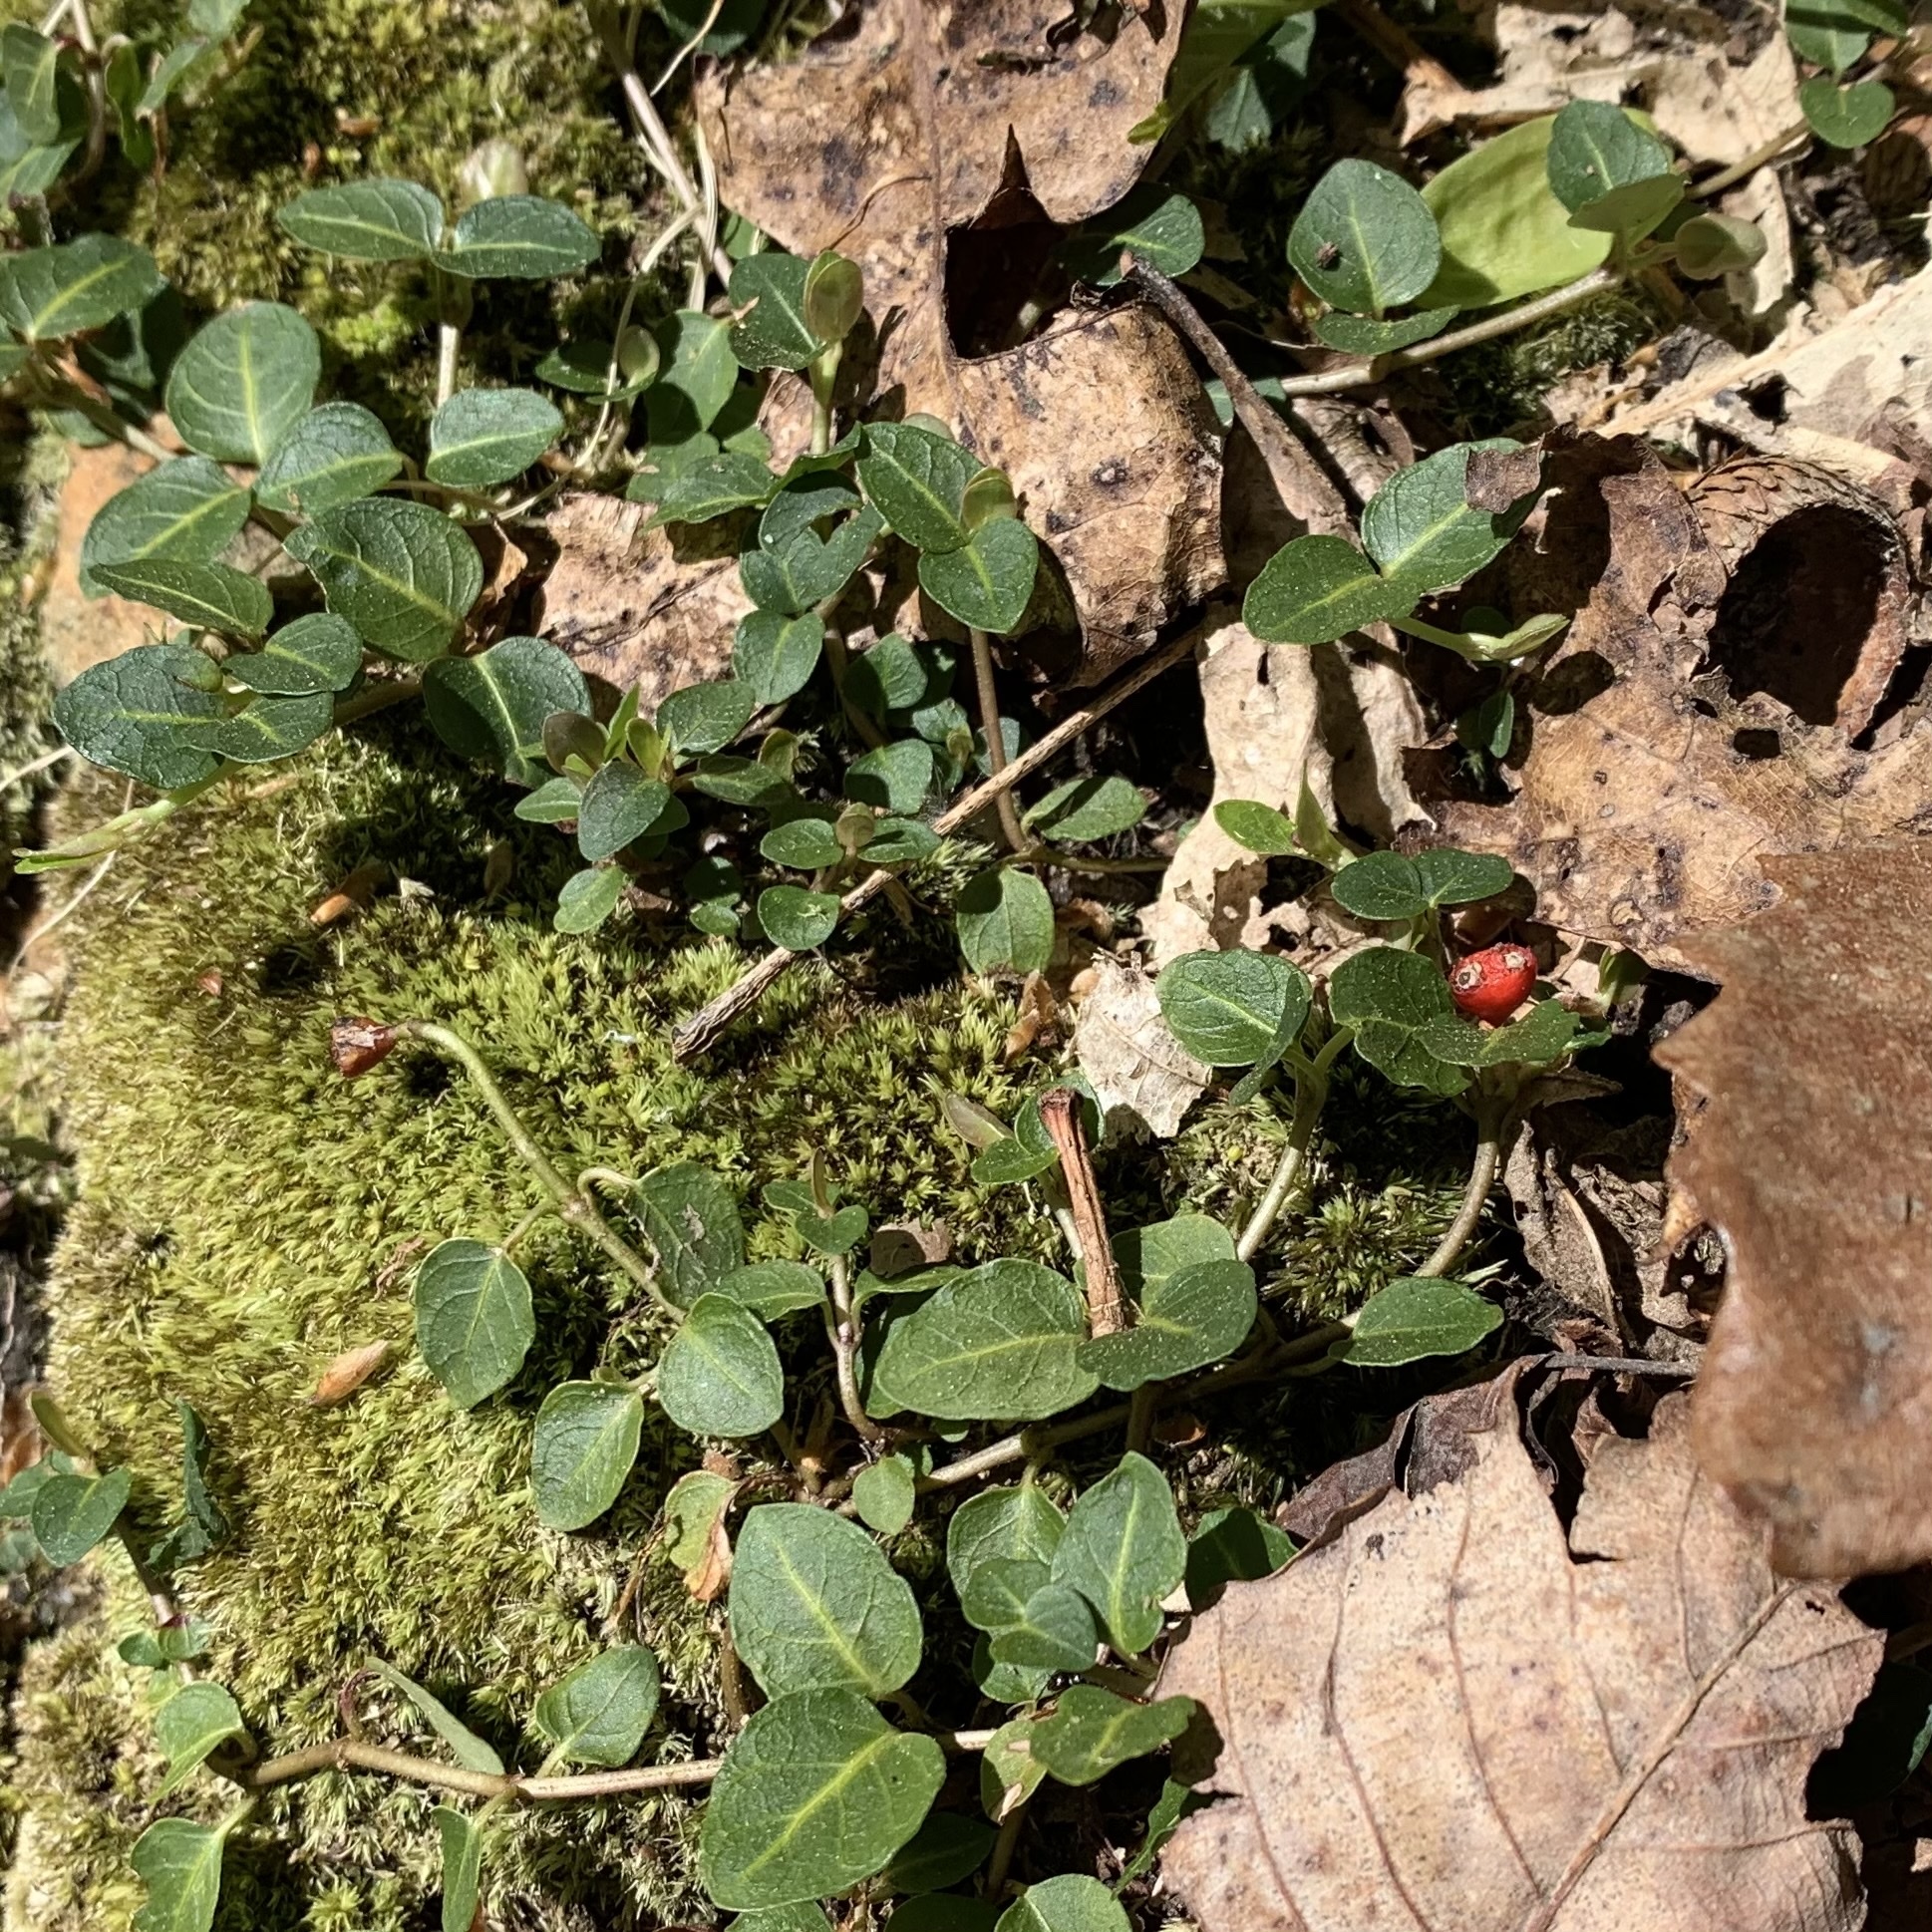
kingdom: Plantae
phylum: Tracheophyta
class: Magnoliopsida
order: Gentianales
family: Rubiaceae
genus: Mitchella
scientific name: Mitchella repens
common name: Partridge-berry
